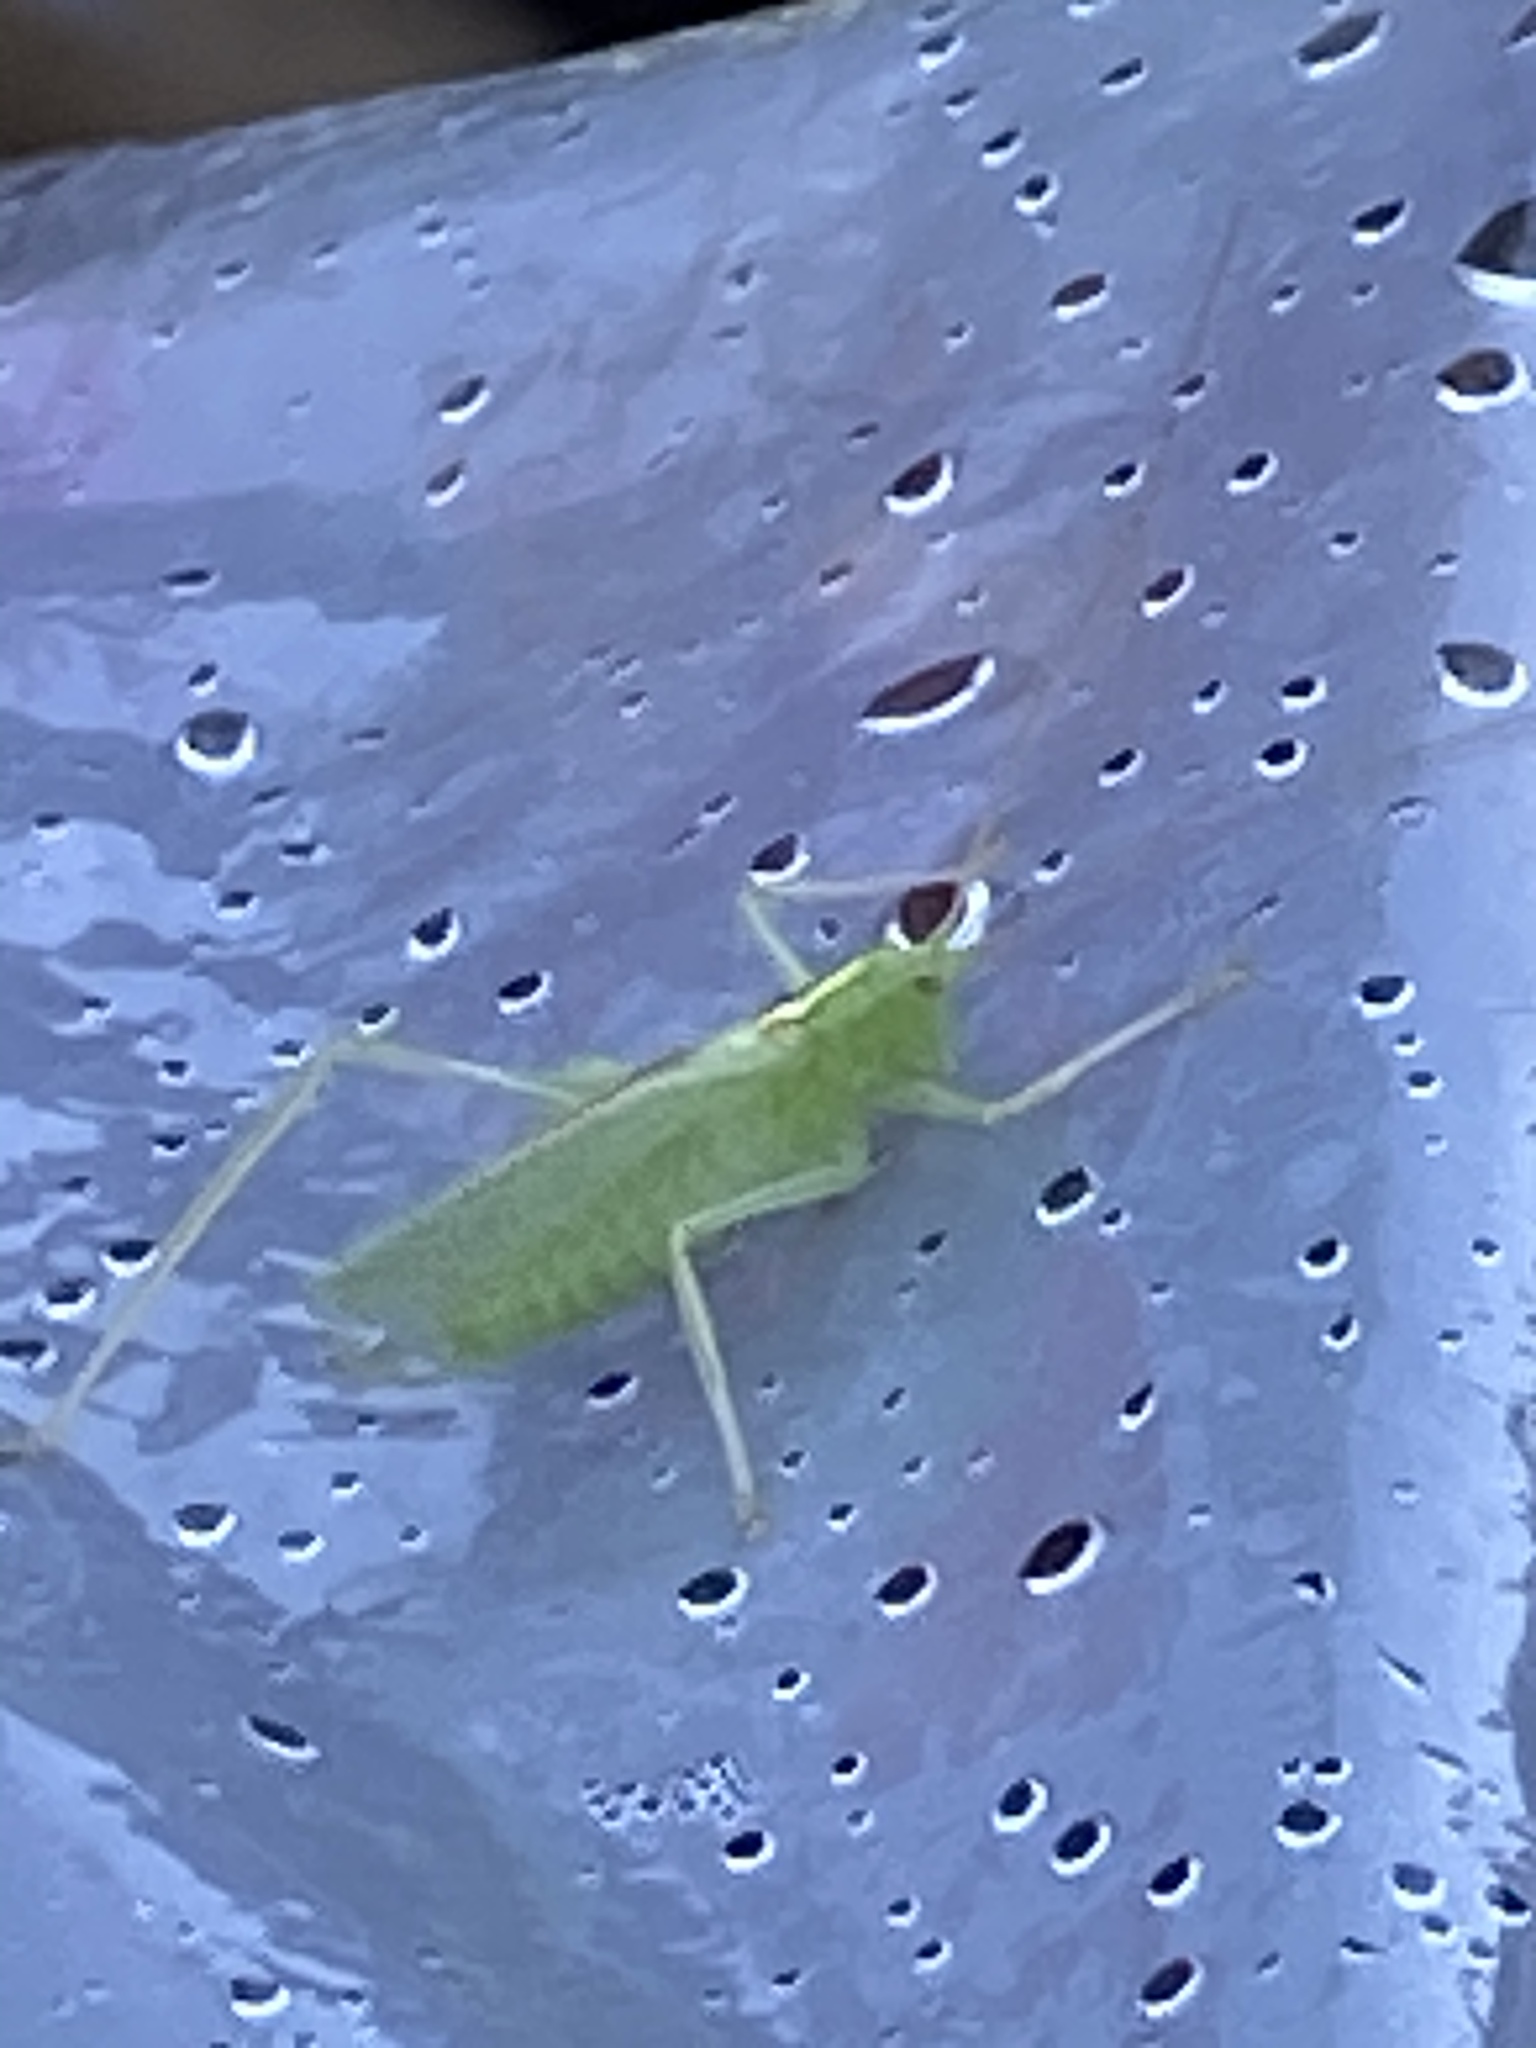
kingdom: Animalia
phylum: Arthropoda
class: Insecta
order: Orthoptera
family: Tettigoniidae
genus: Meconema
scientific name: Meconema thalassinum
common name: Oak bush-cricket
